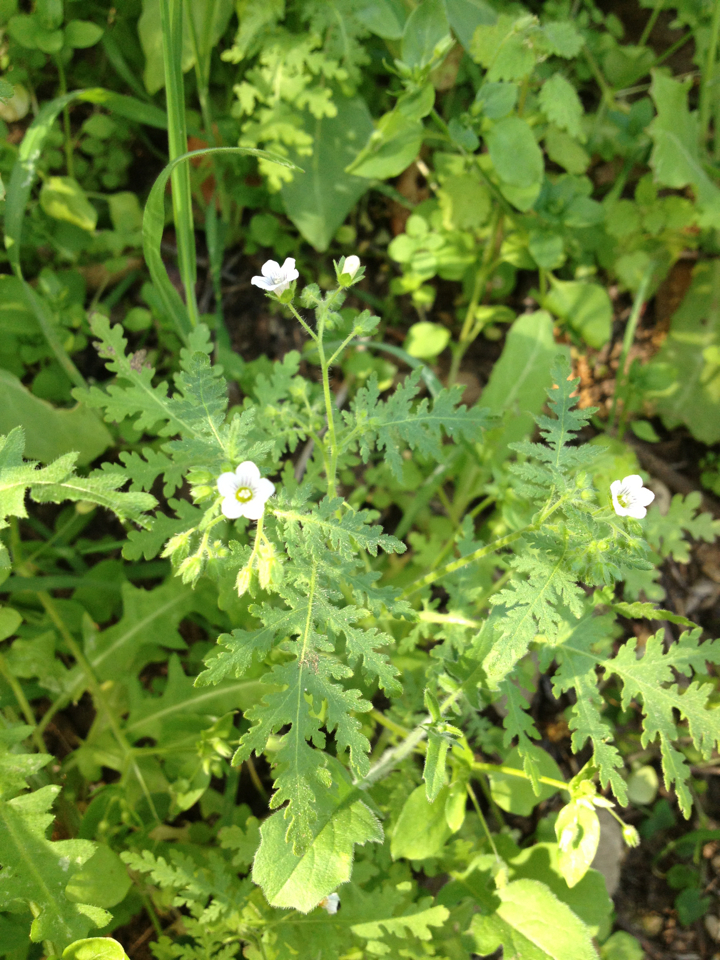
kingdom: Plantae
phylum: Tracheophyta
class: Magnoliopsida
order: Boraginales
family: Hydrophyllaceae
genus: Eucrypta
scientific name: Eucrypta chrysanthemifolia
